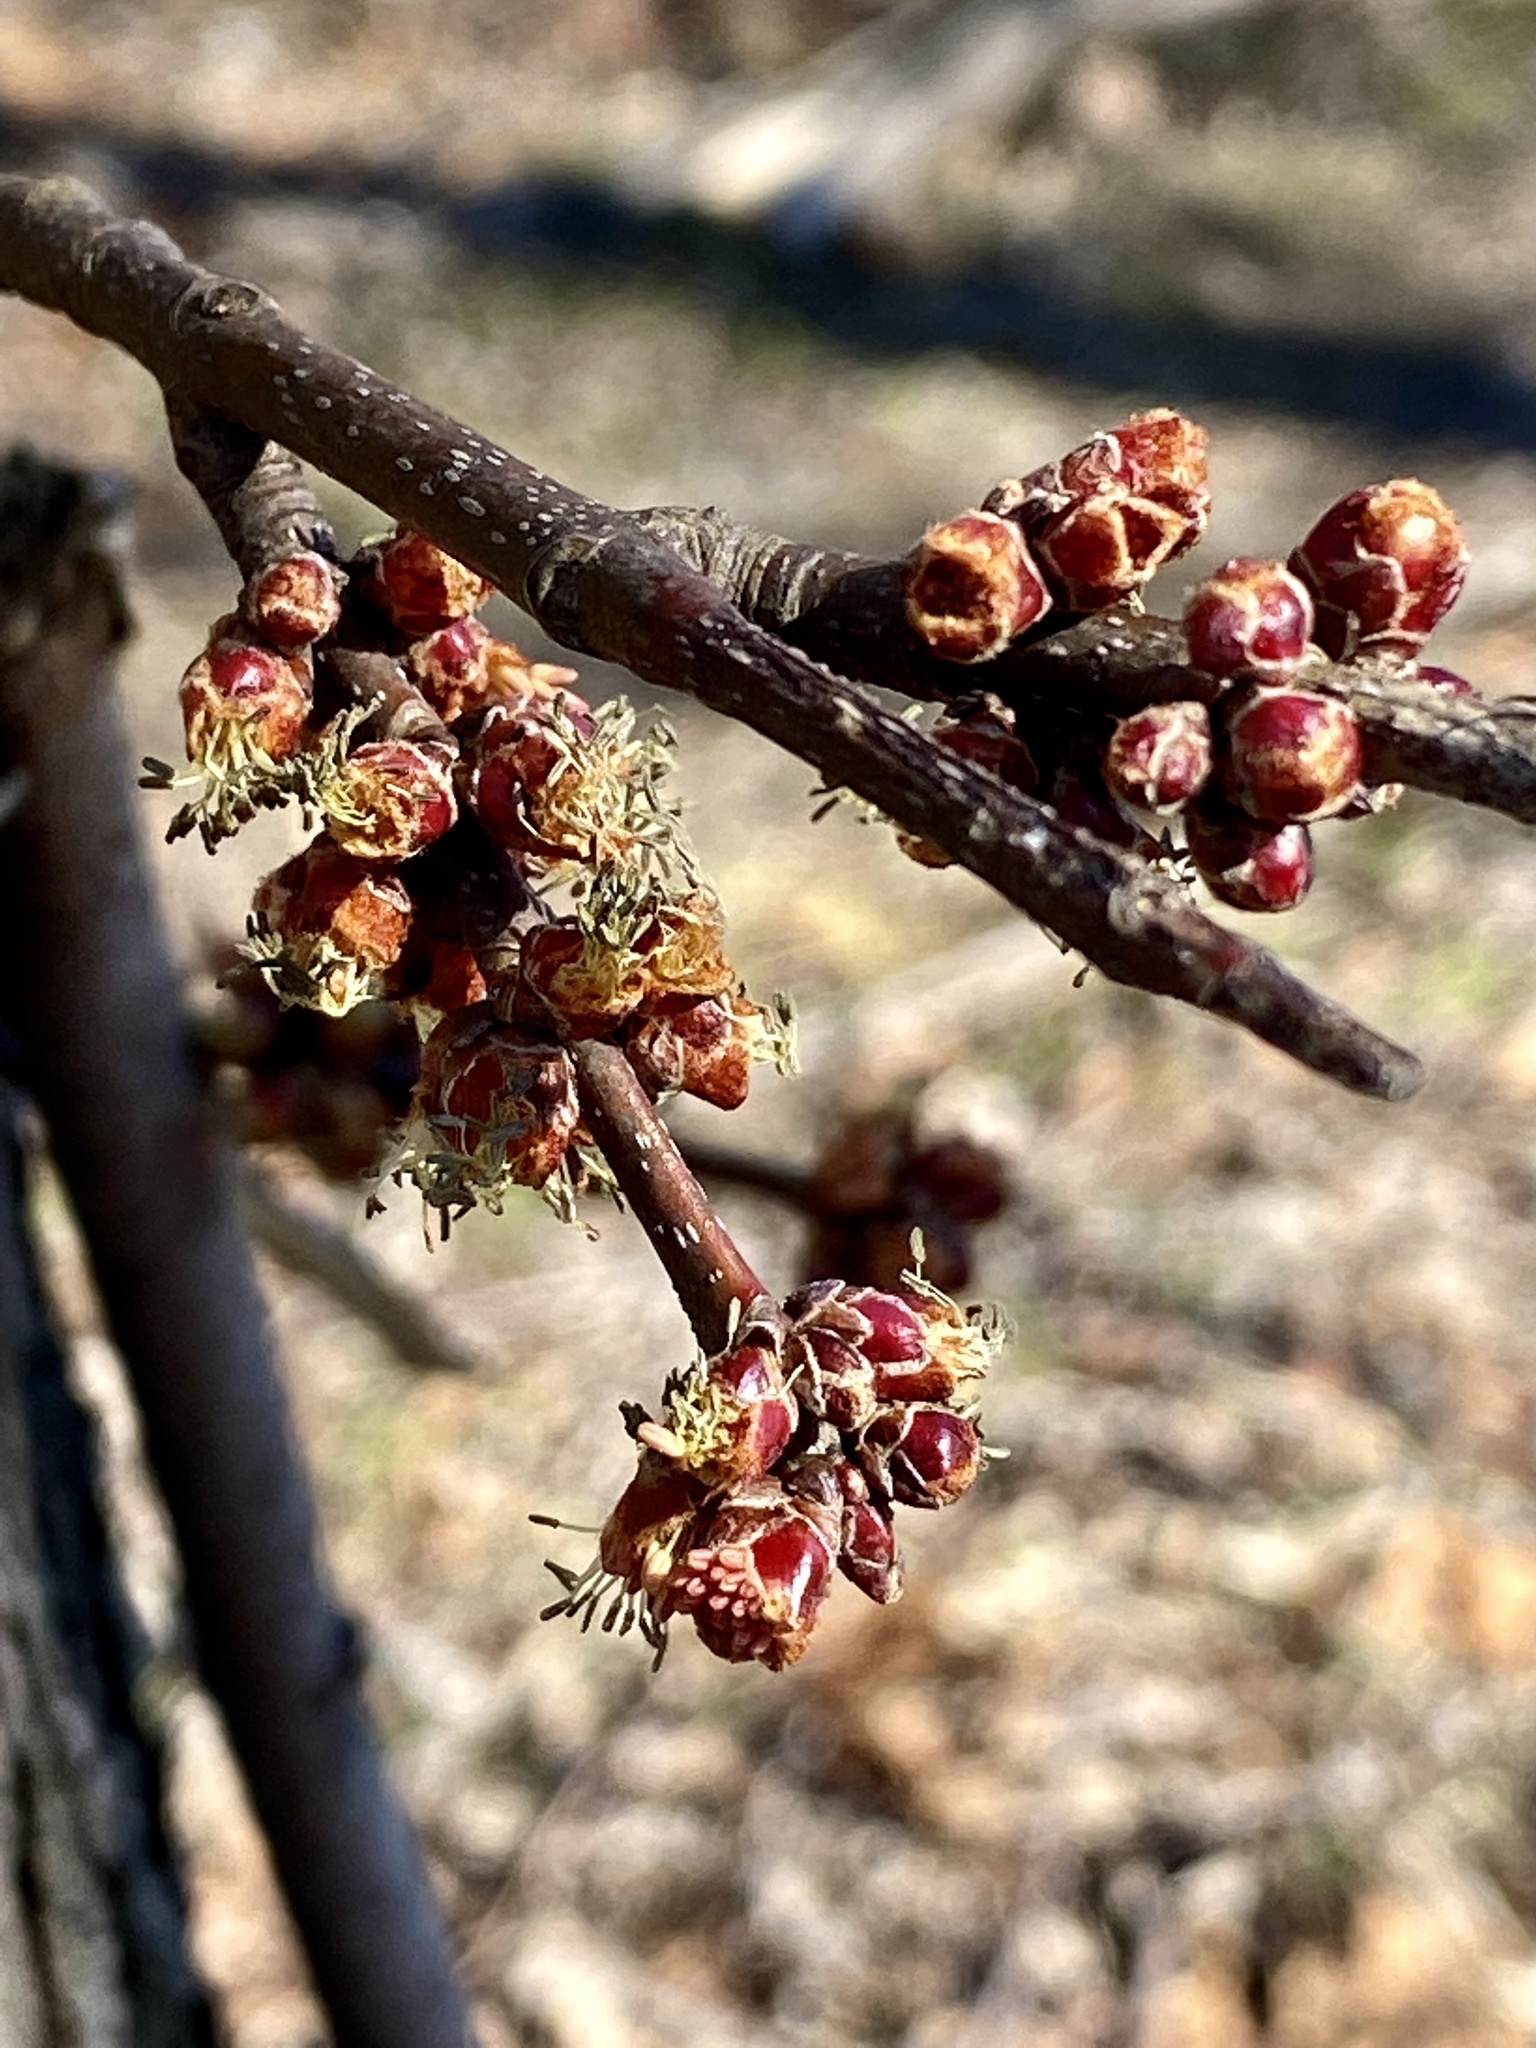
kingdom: Plantae
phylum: Tracheophyta
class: Magnoliopsida
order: Sapindales
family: Sapindaceae
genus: Acer
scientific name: Acer saccharinum
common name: Silver maple
